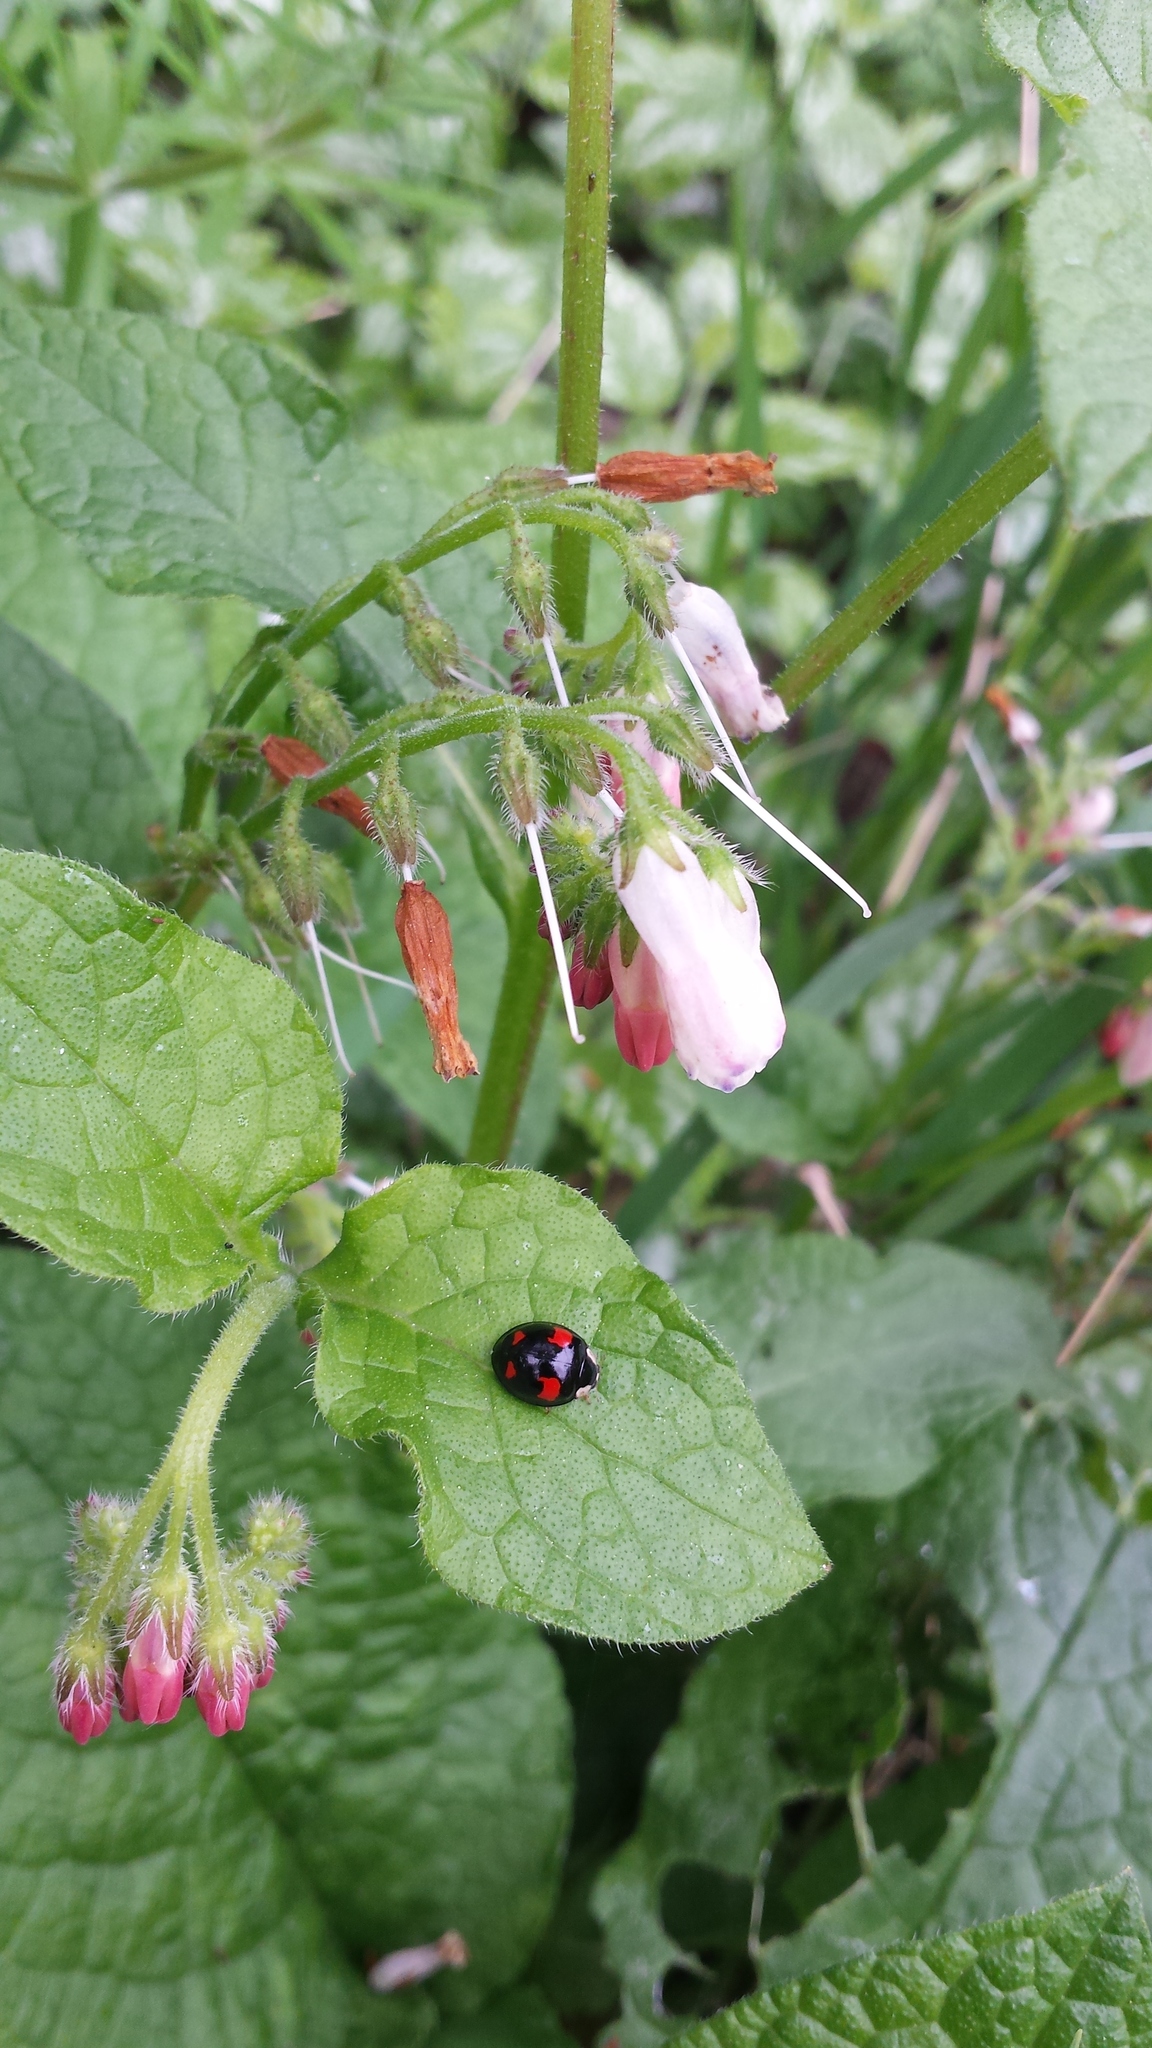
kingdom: Animalia
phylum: Arthropoda
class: Insecta
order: Coleoptera
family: Coccinellidae
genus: Harmonia
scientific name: Harmonia axyridis
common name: Harlequin ladybird
